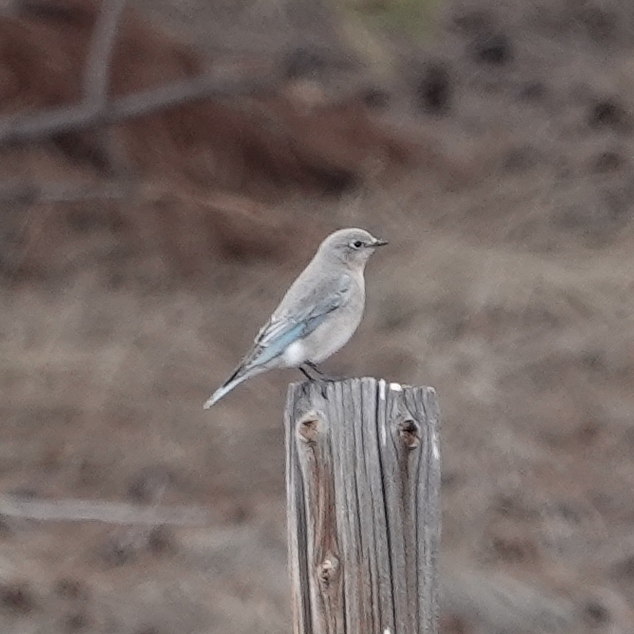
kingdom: Animalia
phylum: Chordata
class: Aves
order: Passeriformes
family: Turdidae
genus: Sialia
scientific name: Sialia currucoides
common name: Mountain bluebird
